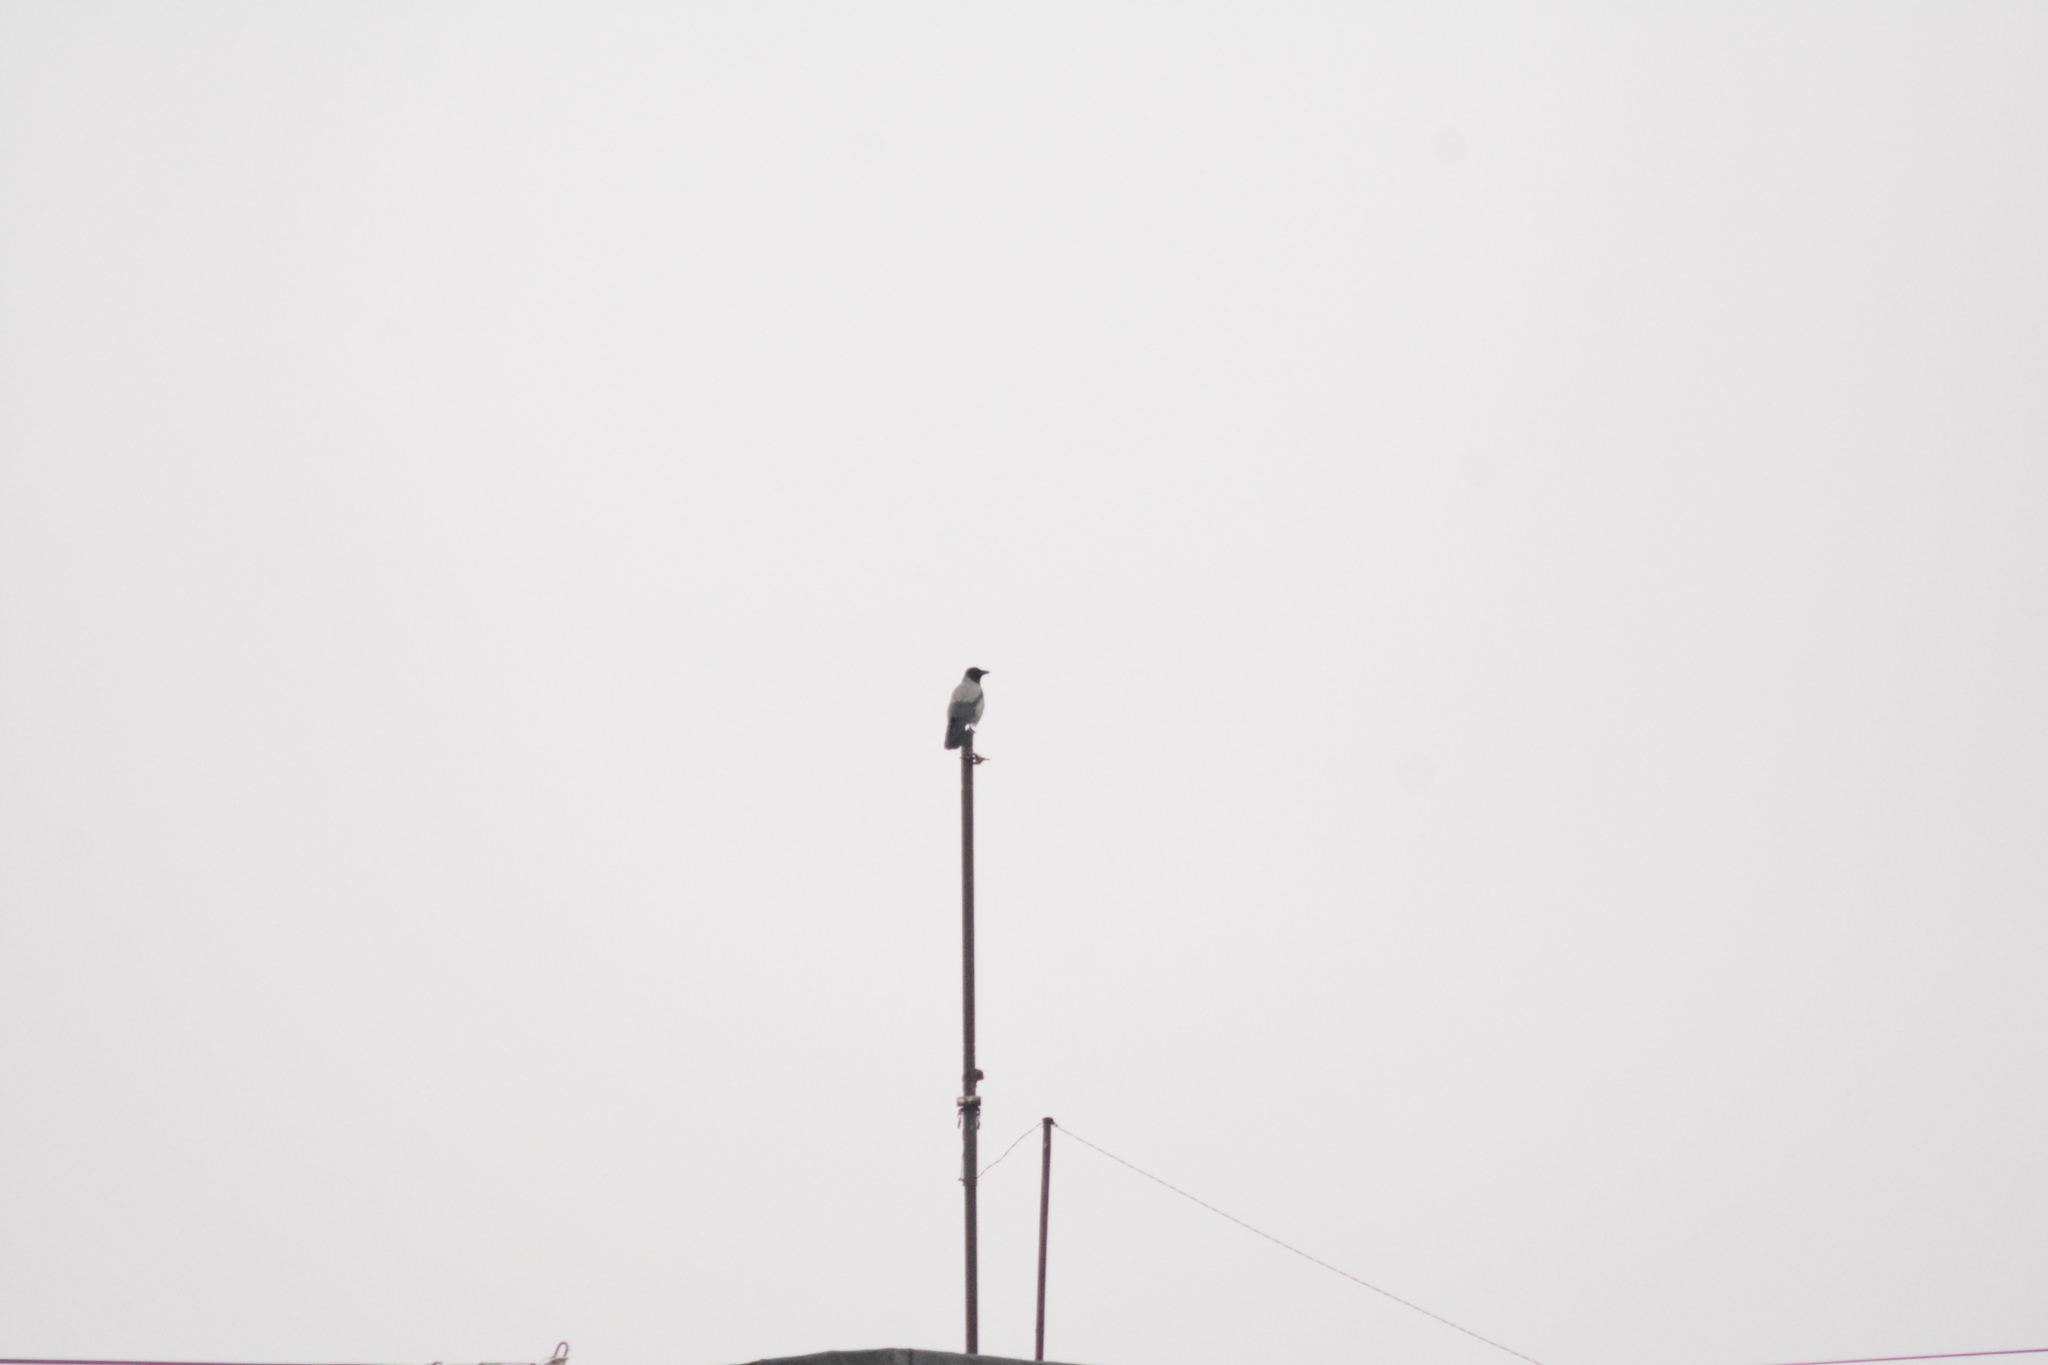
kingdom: Animalia
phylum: Chordata
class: Aves
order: Passeriformes
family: Corvidae
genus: Corvus
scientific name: Corvus cornix
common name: Hooded crow
